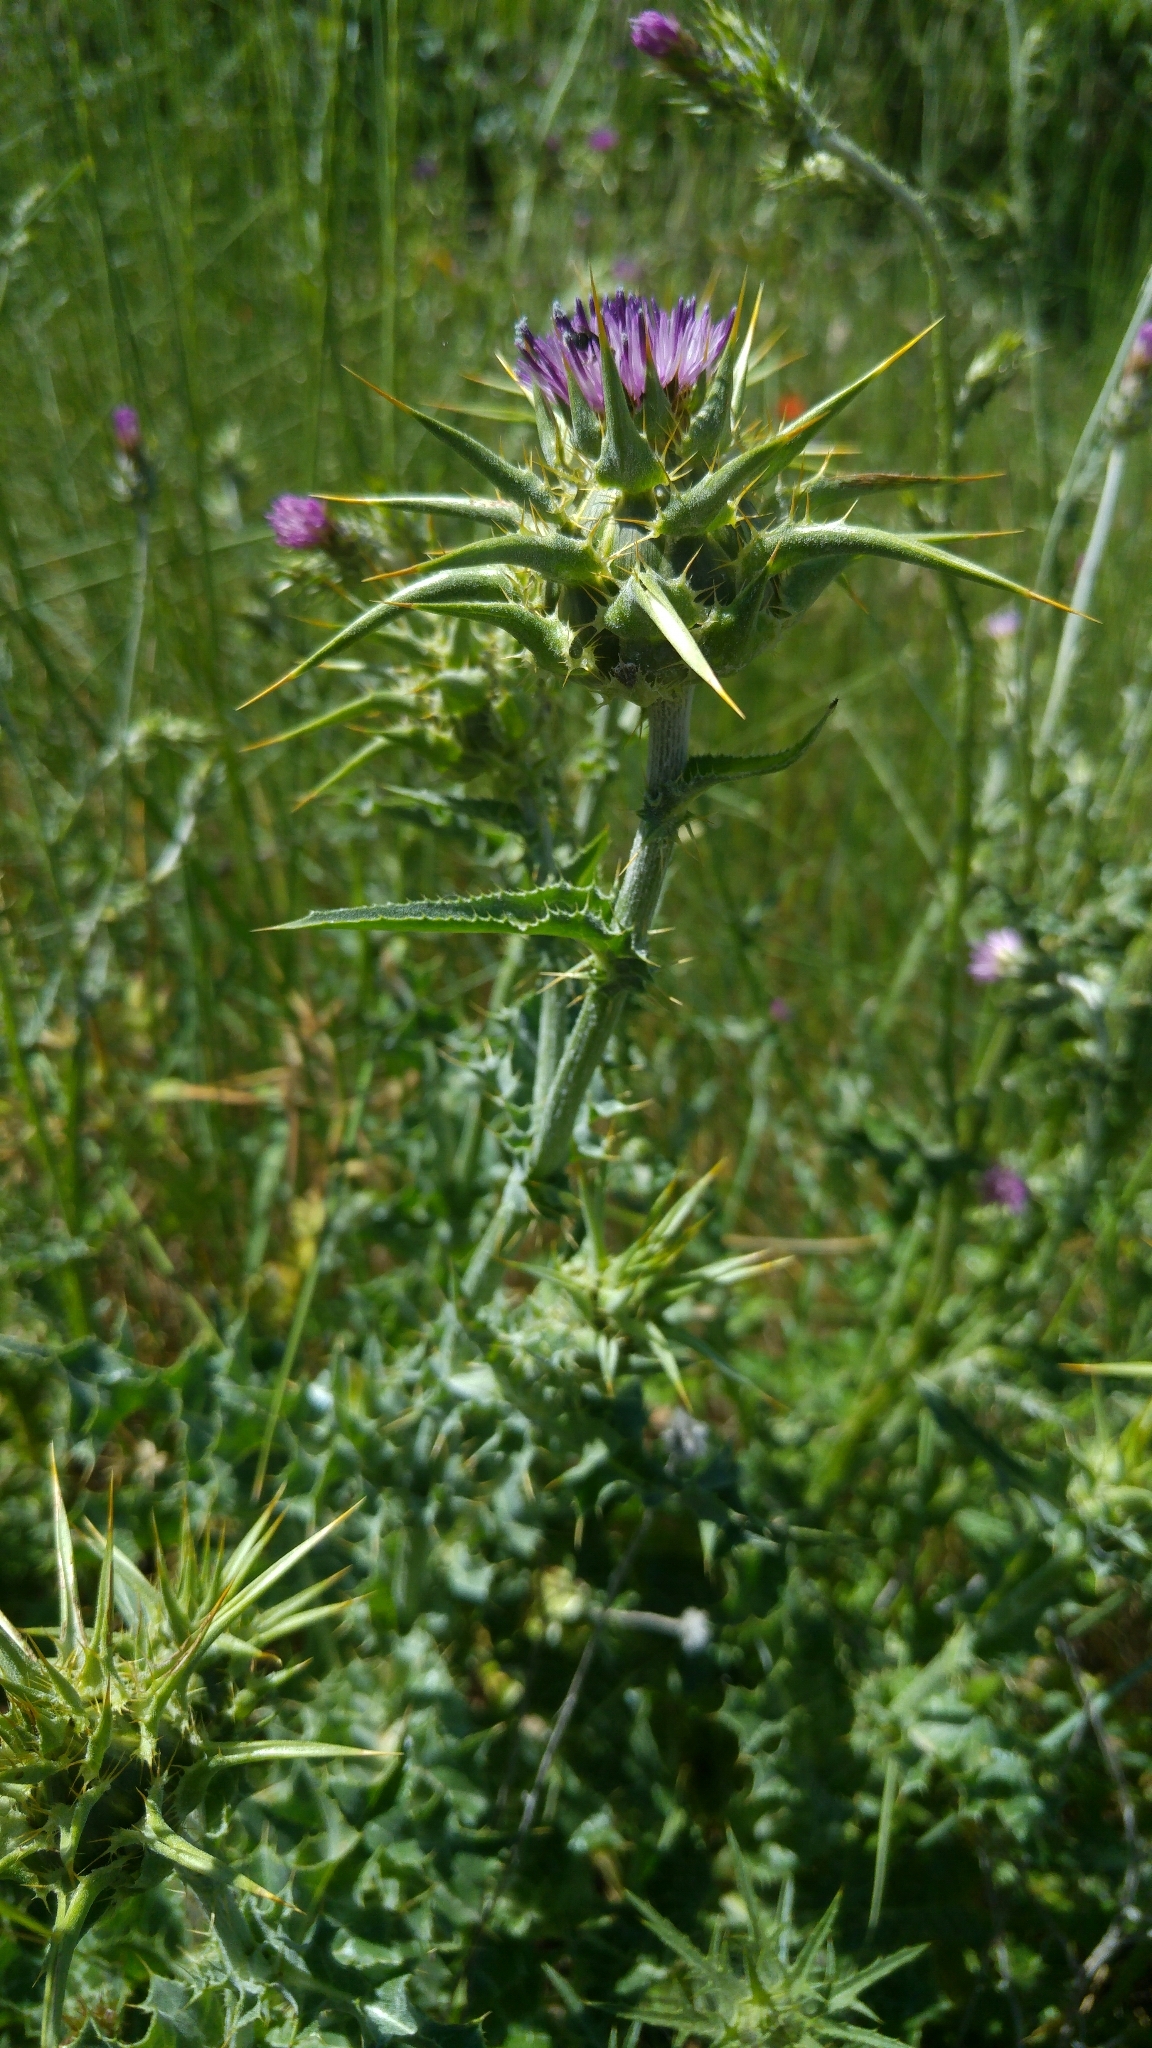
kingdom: Plantae
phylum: Tracheophyta
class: Magnoliopsida
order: Asterales
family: Asteraceae
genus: Silybum
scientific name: Silybum marianum
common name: Milk thistle
